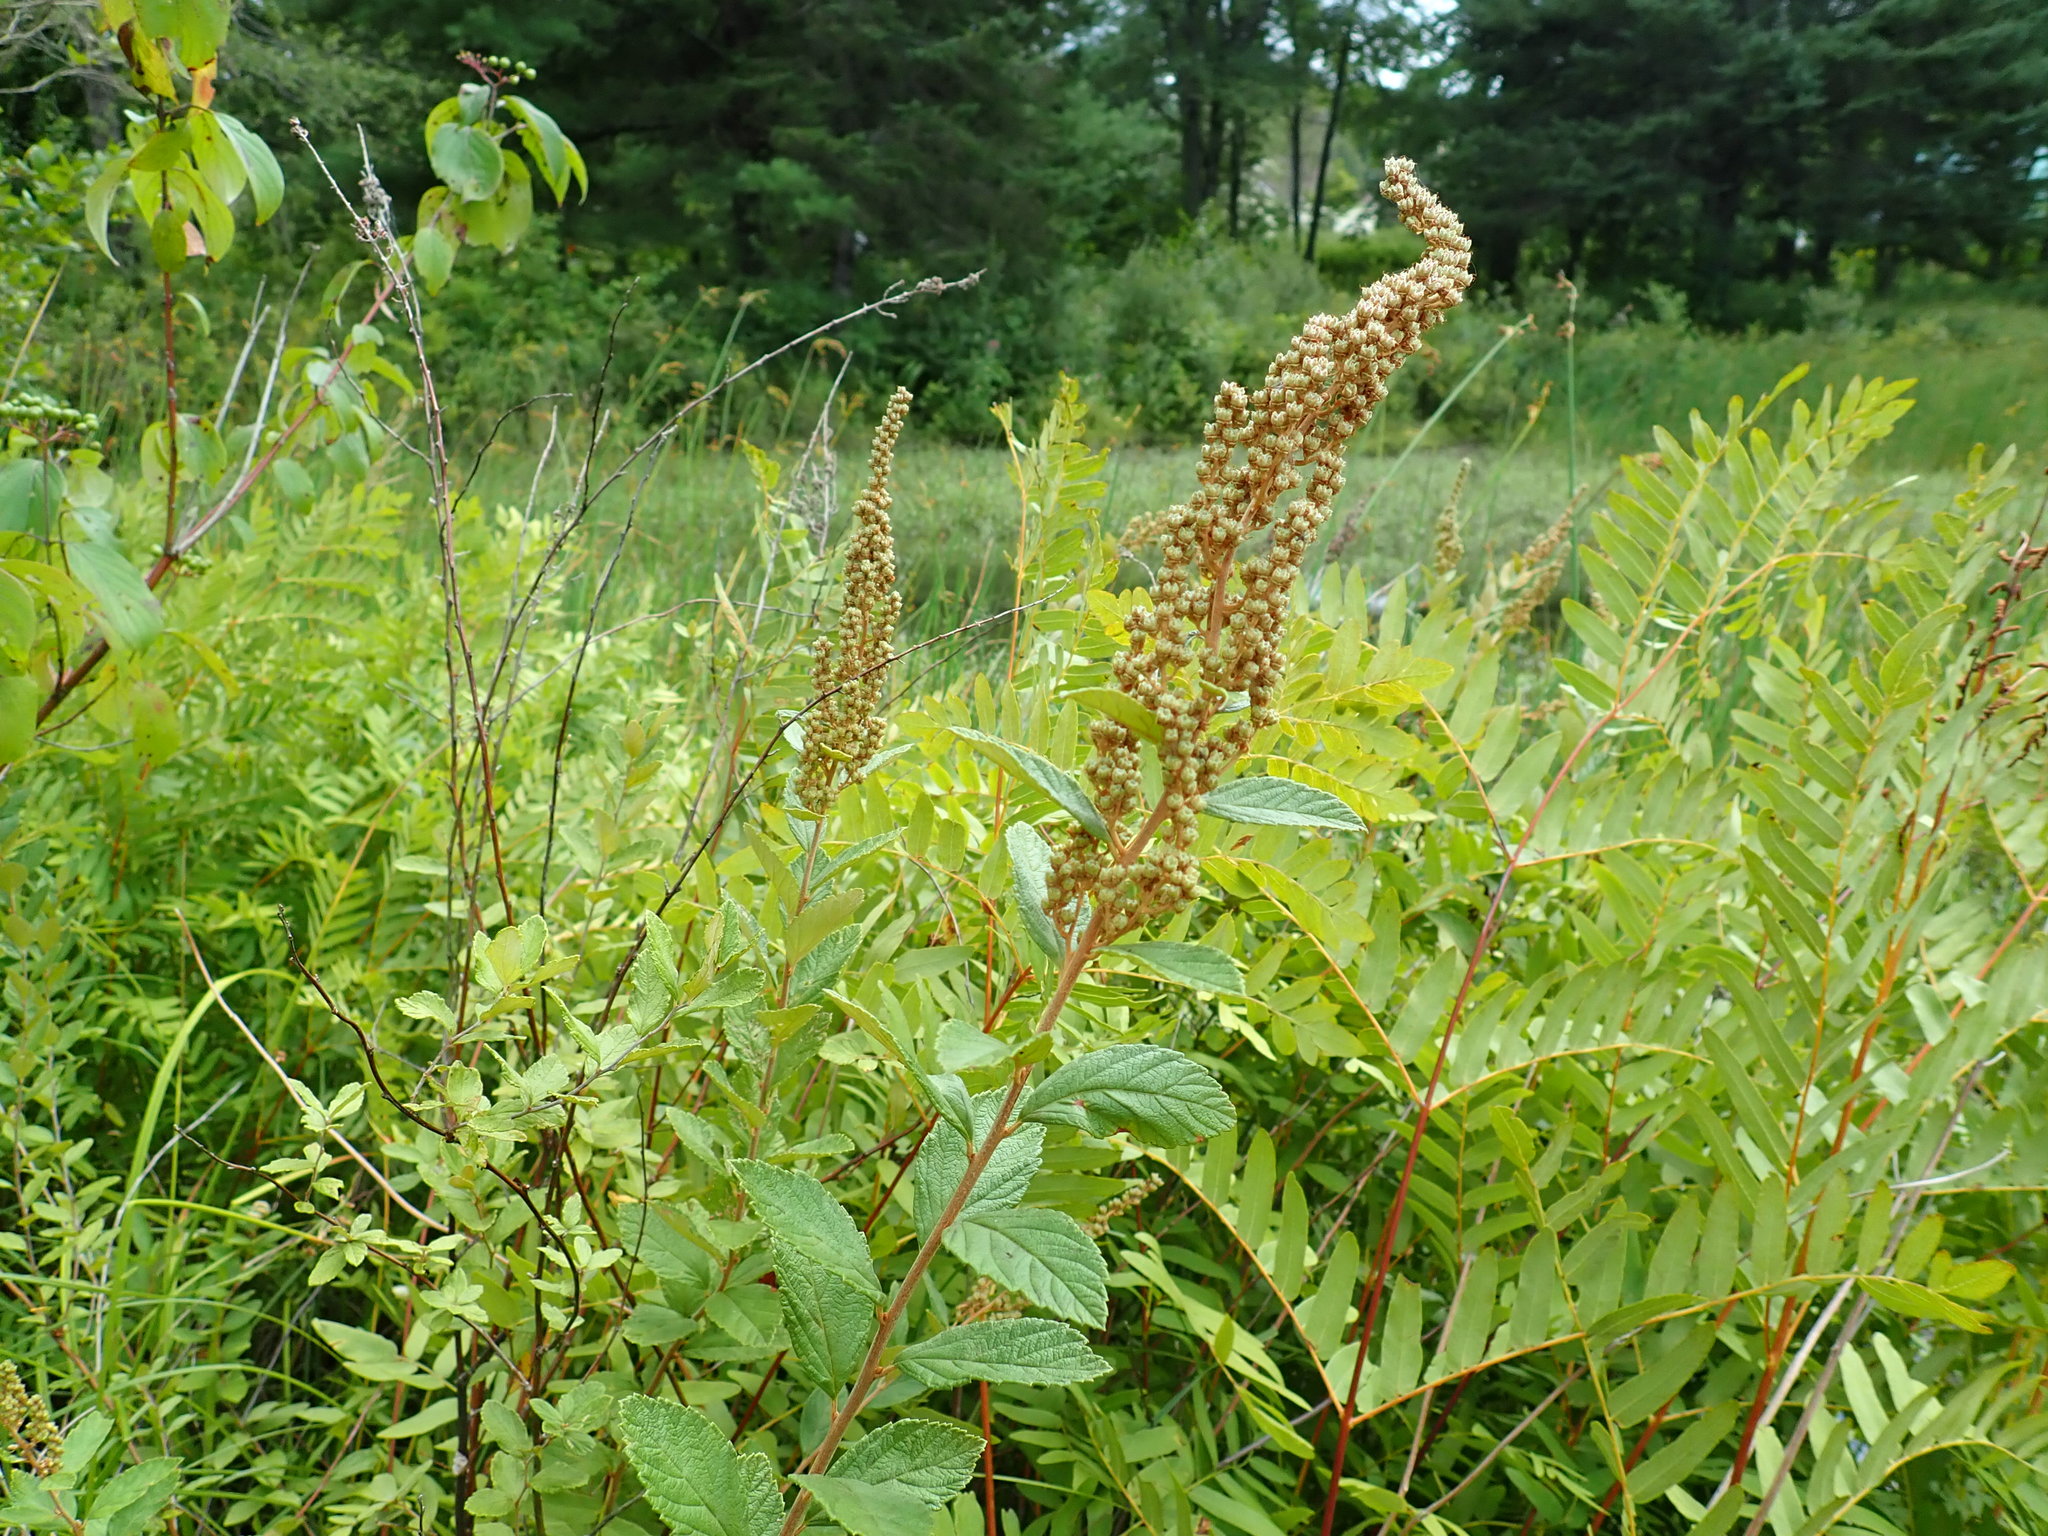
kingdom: Plantae
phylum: Tracheophyta
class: Magnoliopsida
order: Rosales
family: Rosaceae
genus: Spiraea
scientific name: Spiraea tomentosa
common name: Hardhack
